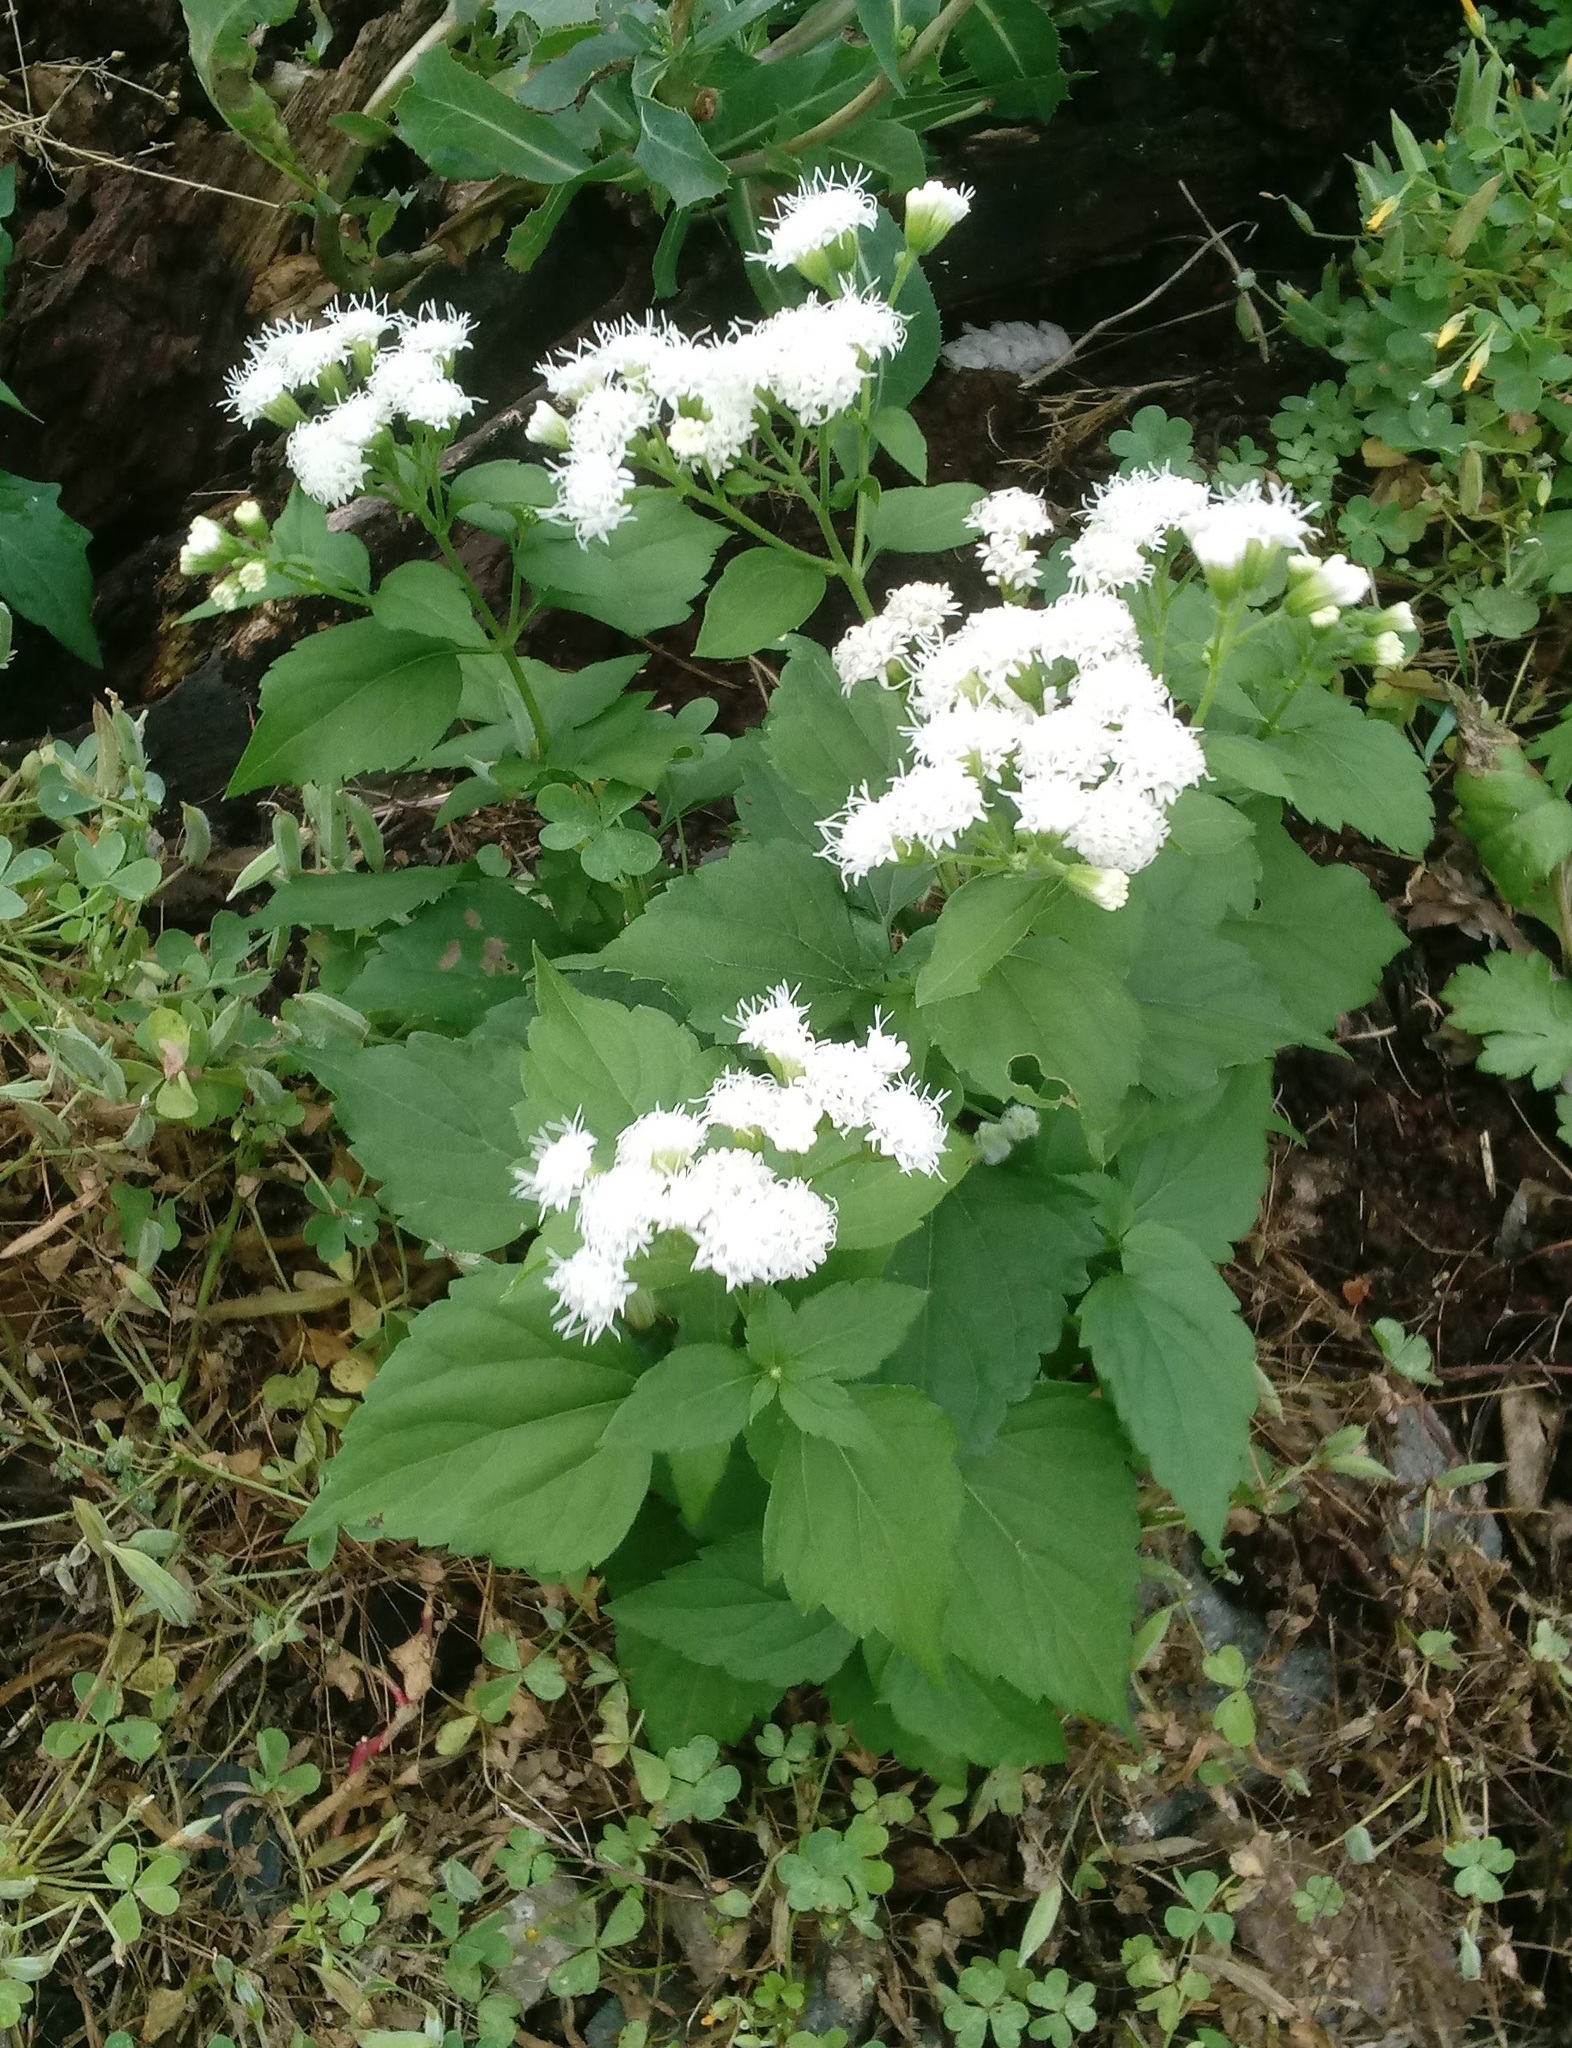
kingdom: Plantae
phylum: Tracheophyta
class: Magnoliopsida
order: Asterales
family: Asteraceae
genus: Ageratina
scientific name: Ageratina altissima
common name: White snakeroot
